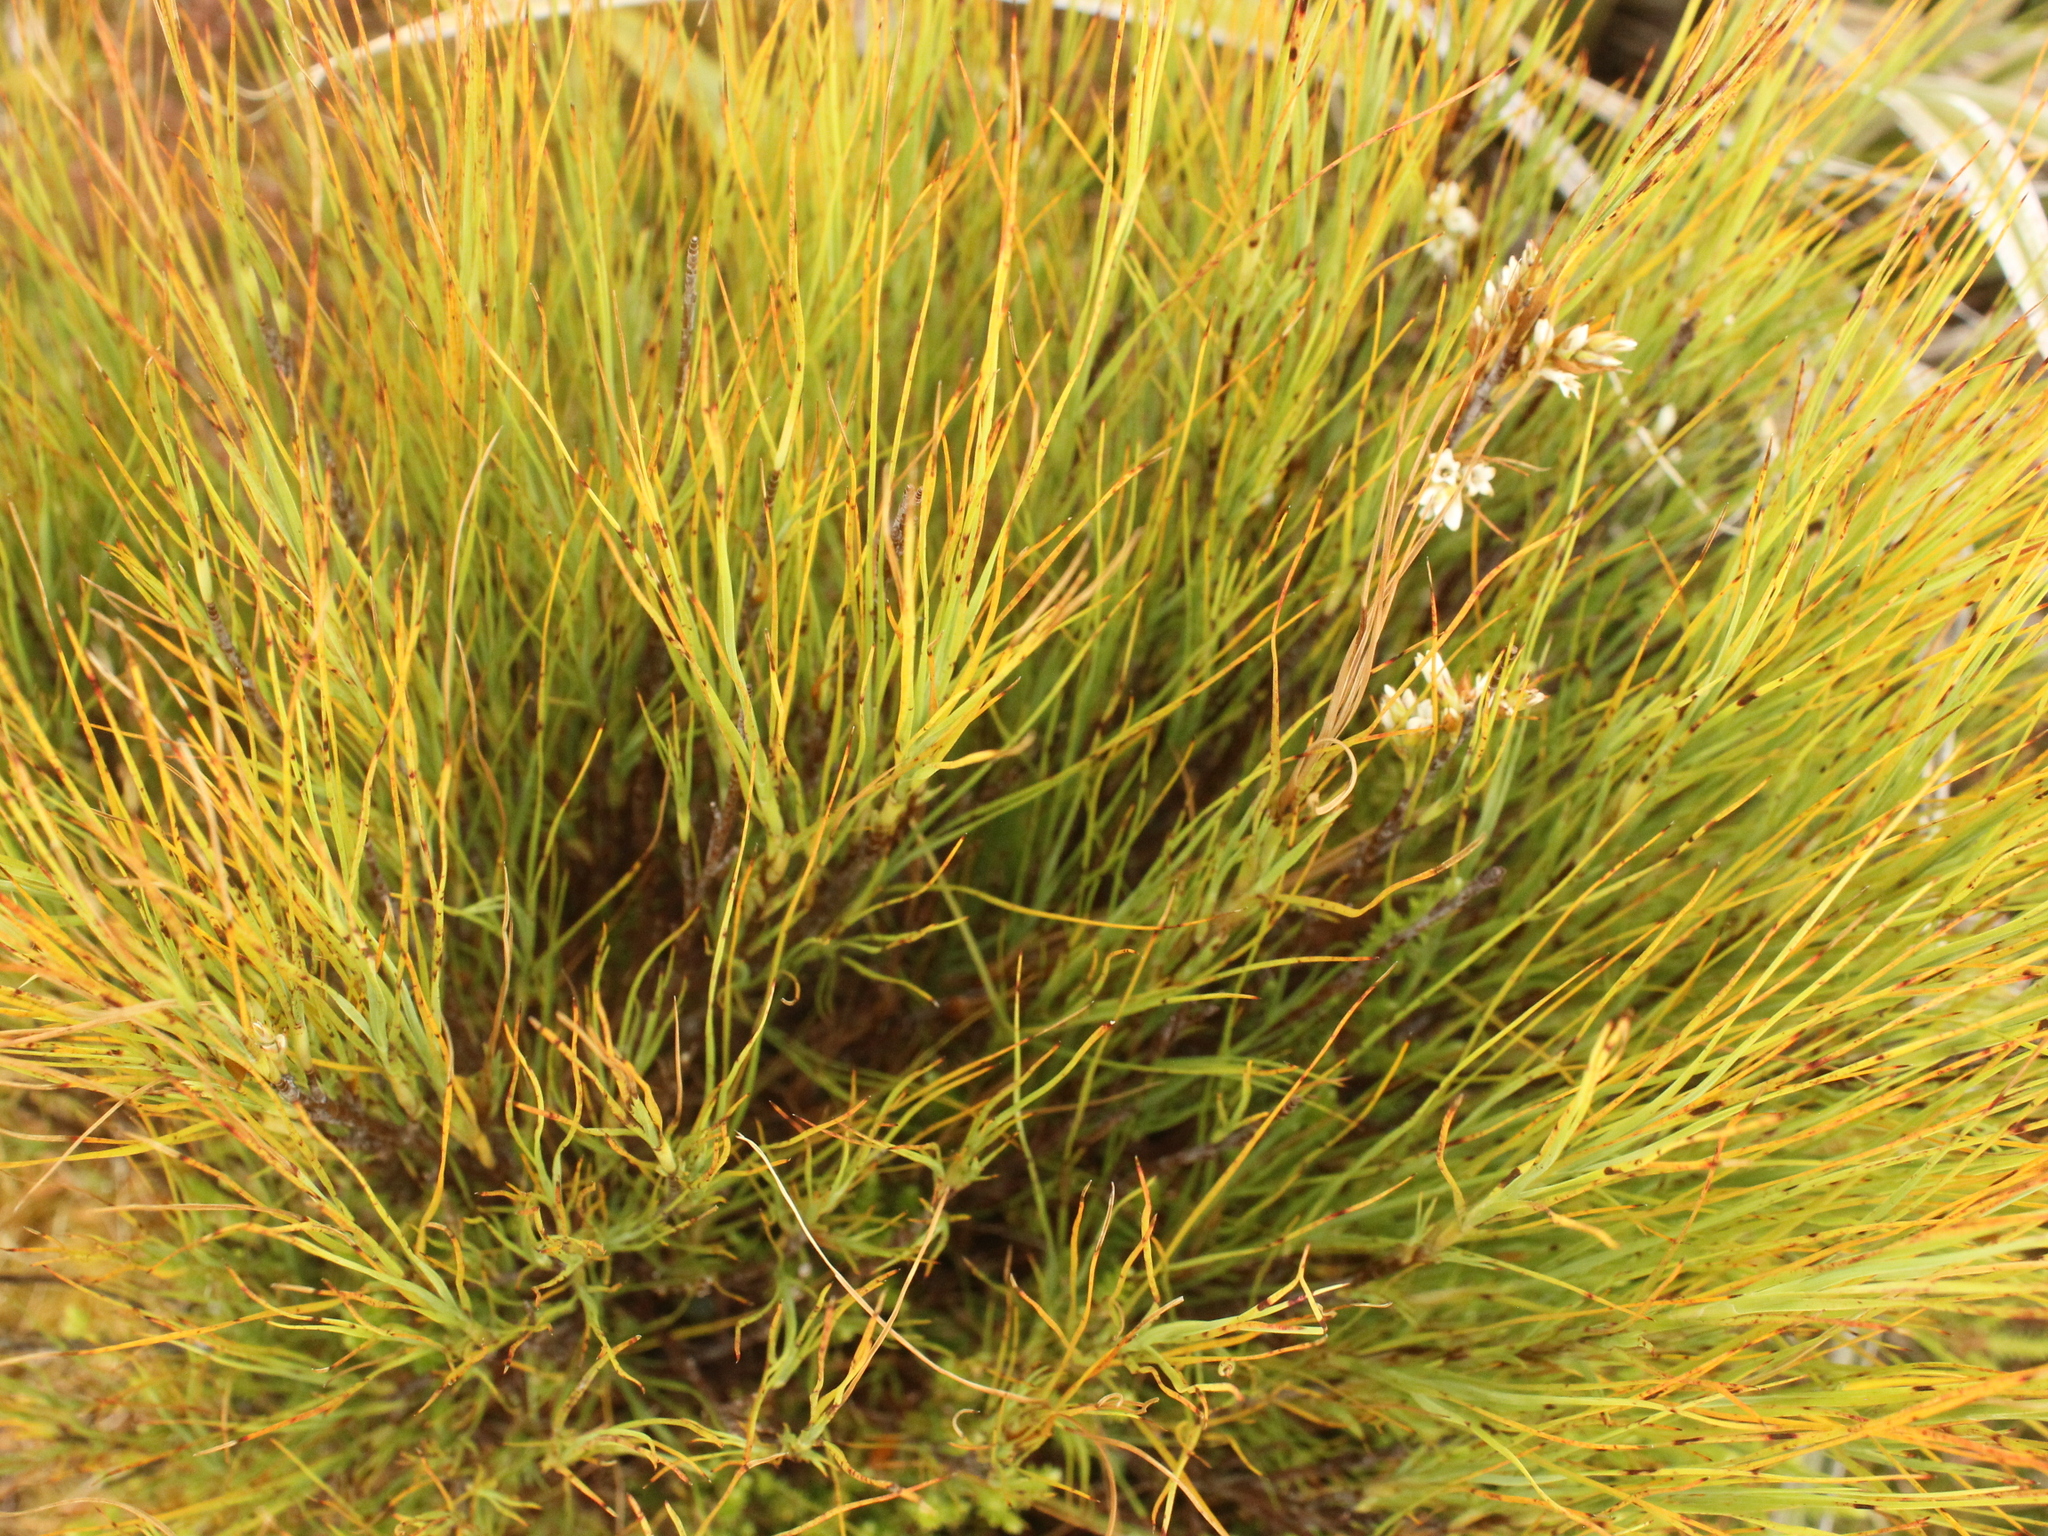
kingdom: Plantae
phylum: Tracheophyta
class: Magnoliopsida
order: Ericales
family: Ericaceae
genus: Dracophyllum
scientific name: Dracophyllum filifolium
